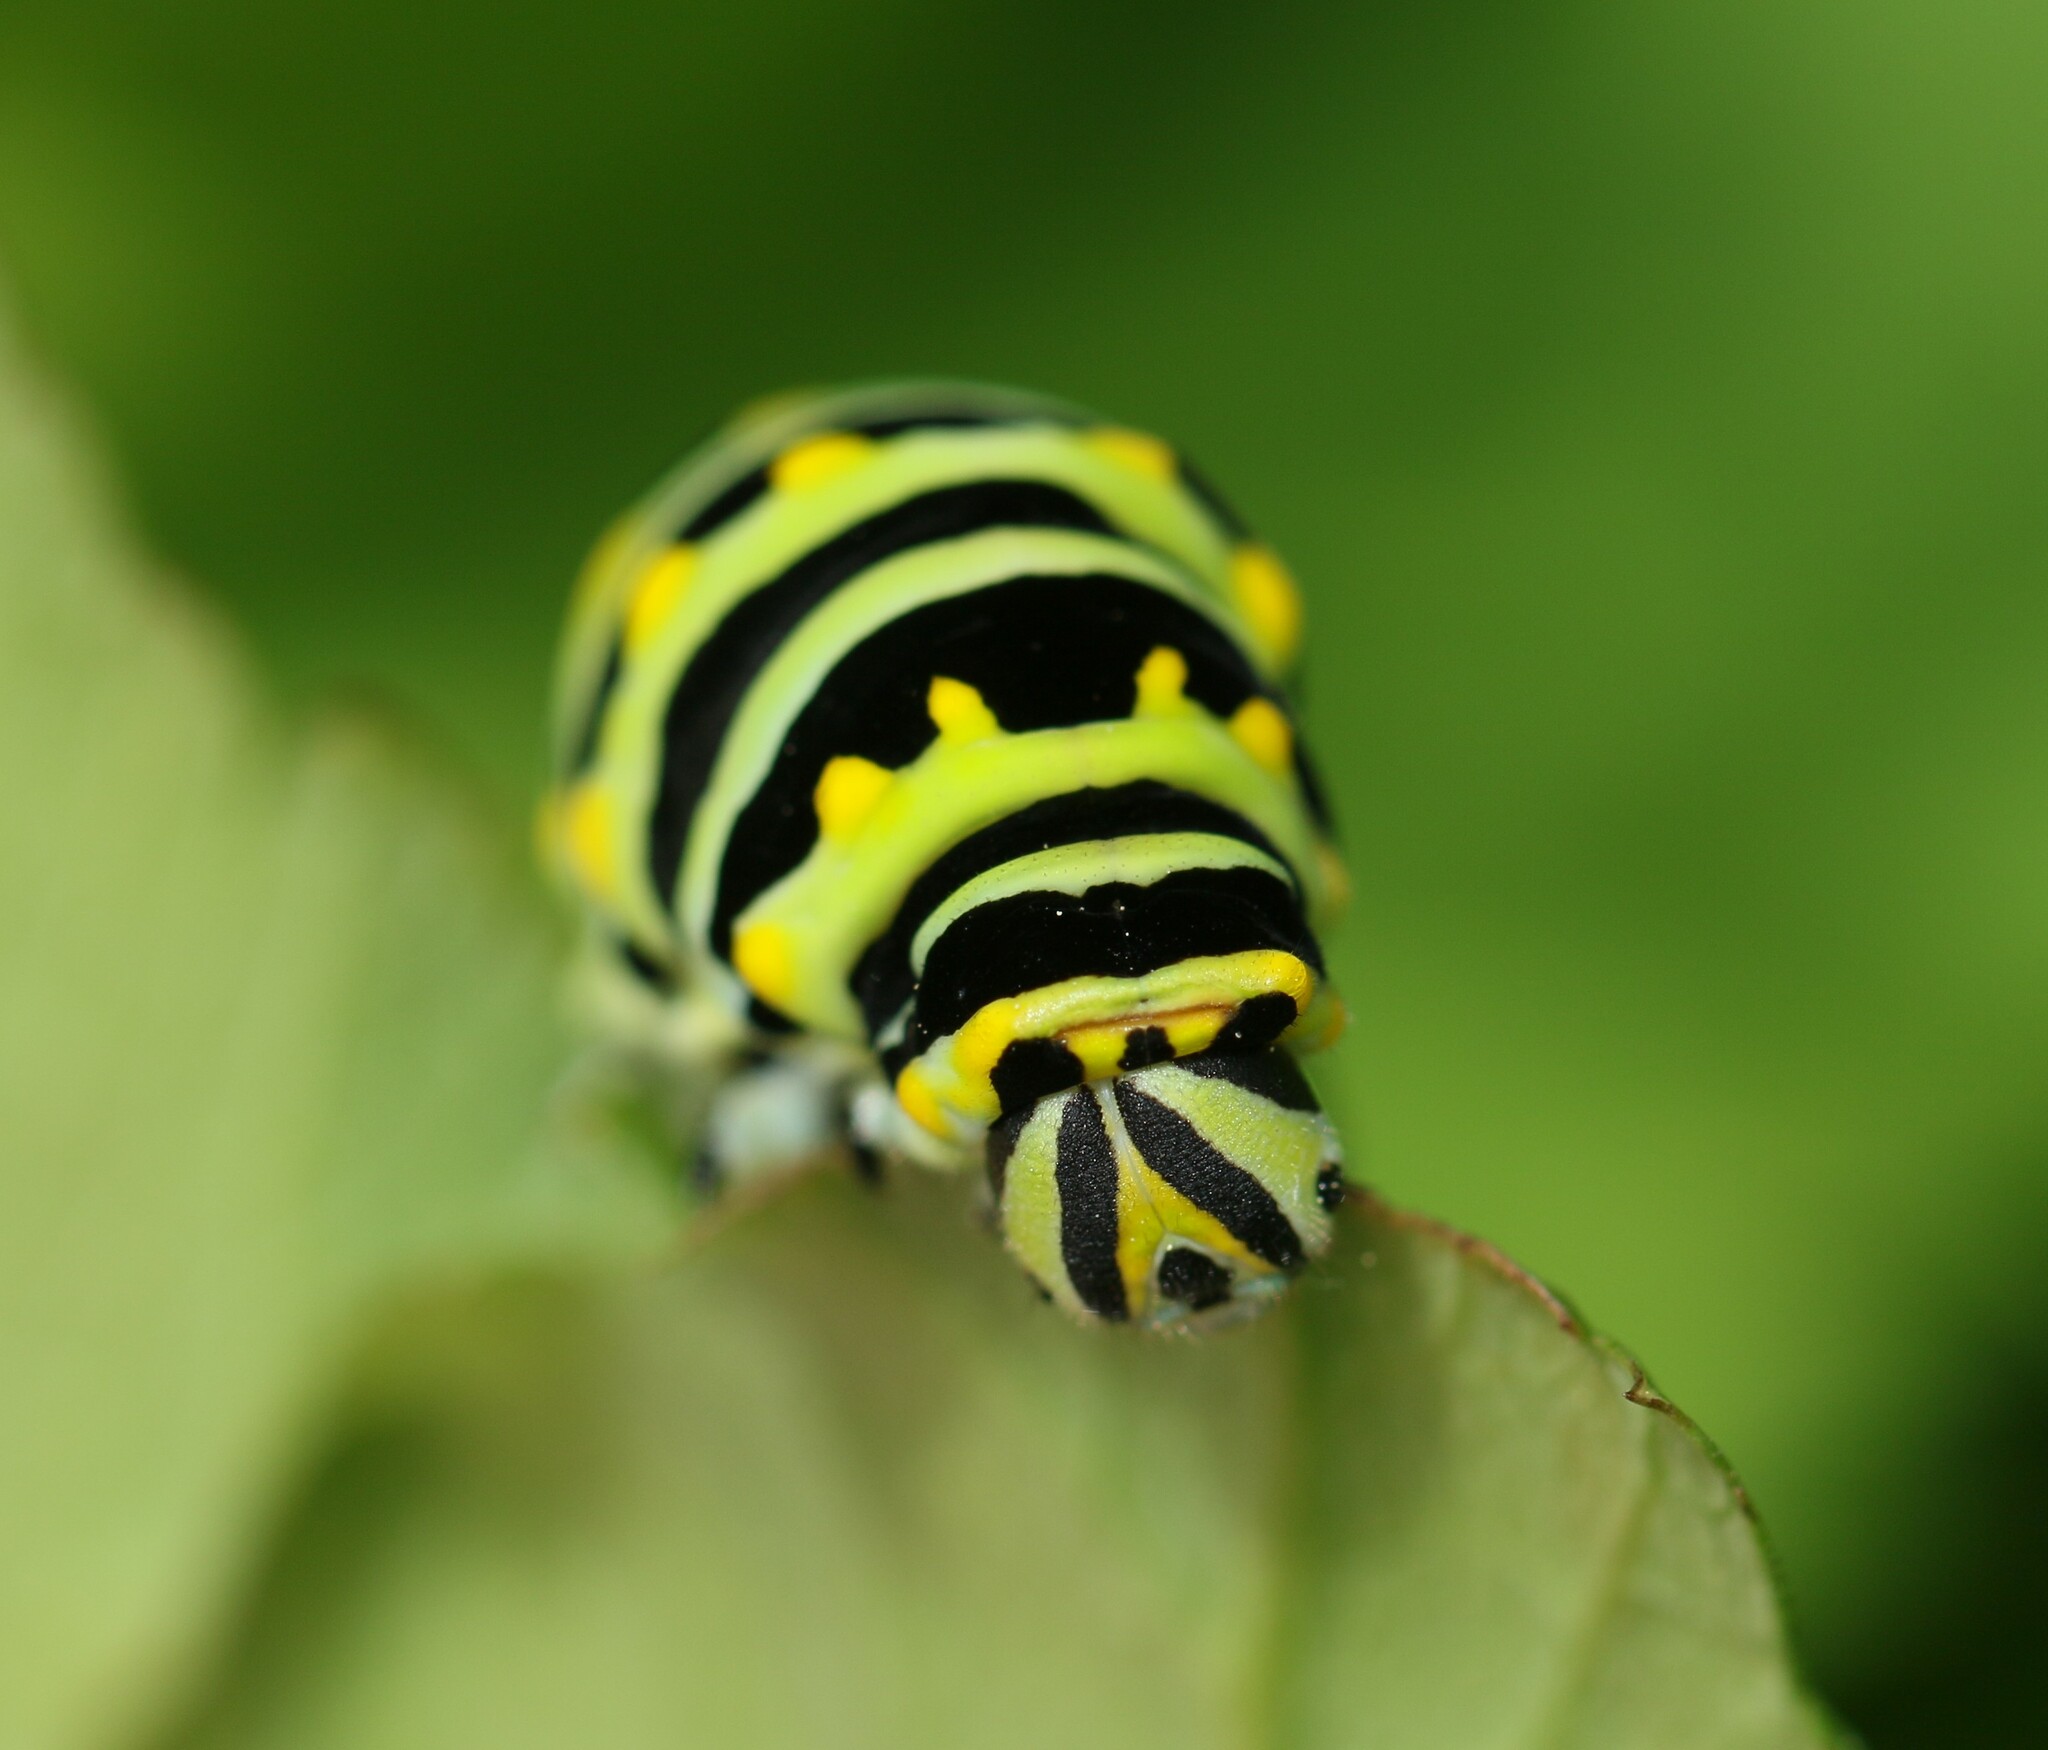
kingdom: Animalia
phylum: Arthropoda
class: Insecta
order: Lepidoptera
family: Papilionidae
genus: Papilio
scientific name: Papilio polyxenes
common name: Black swallowtail
